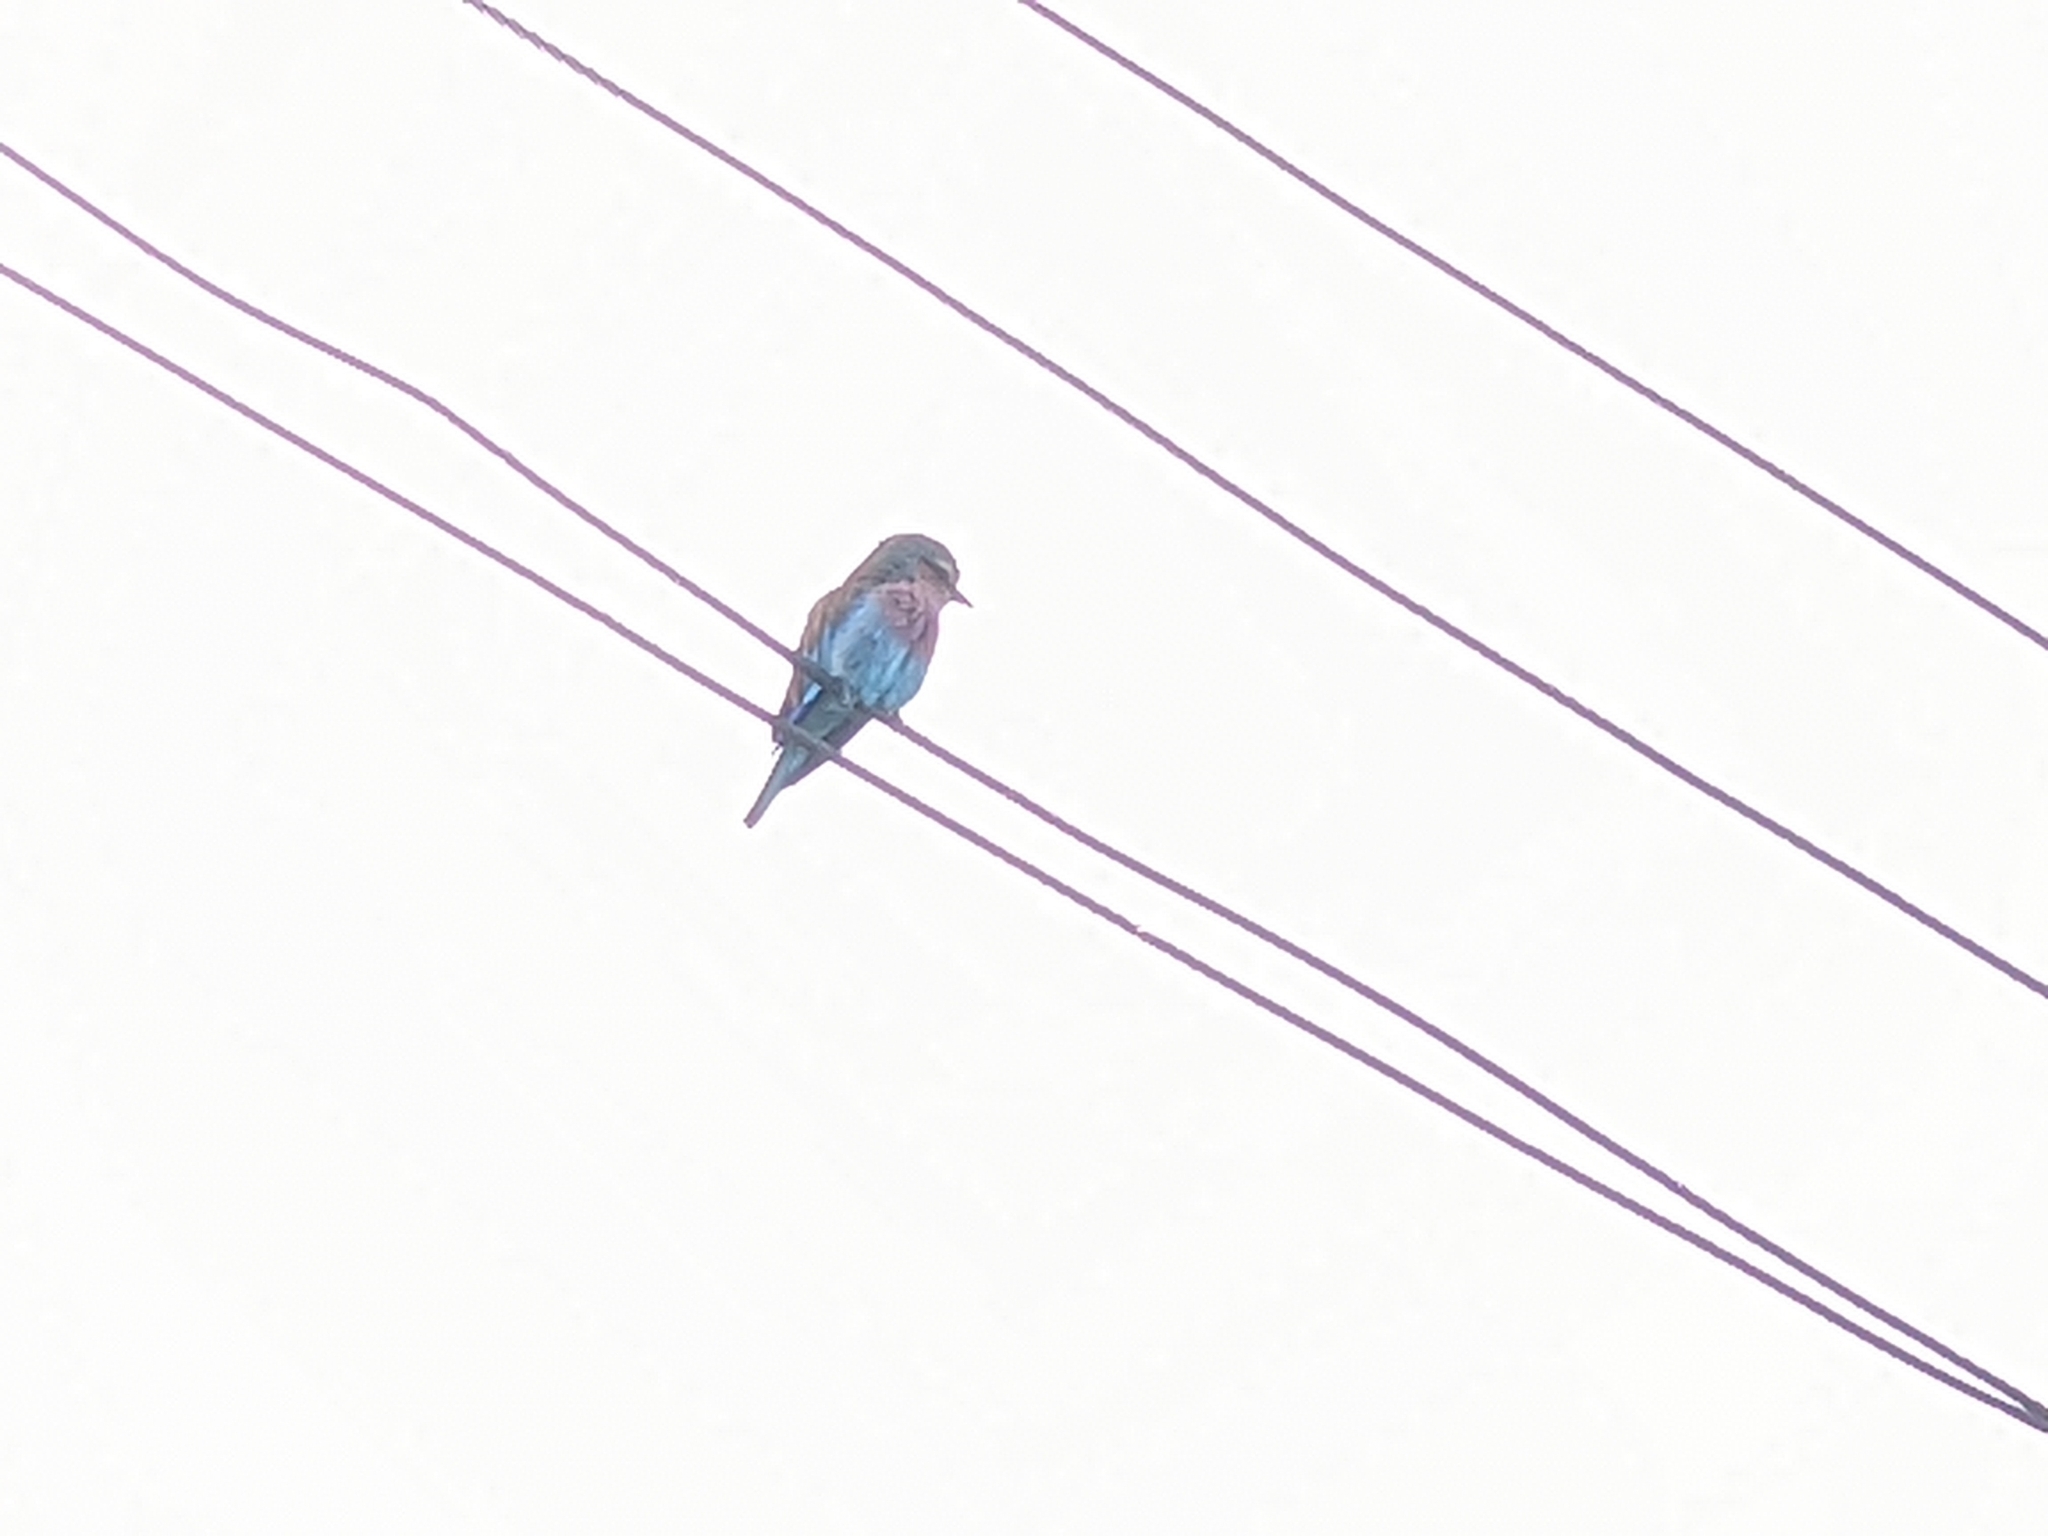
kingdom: Animalia
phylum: Chordata
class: Aves
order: Coraciiformes
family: Coraciidae
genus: Coracias
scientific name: Coracias caudatus
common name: Lilac-breasted roller
